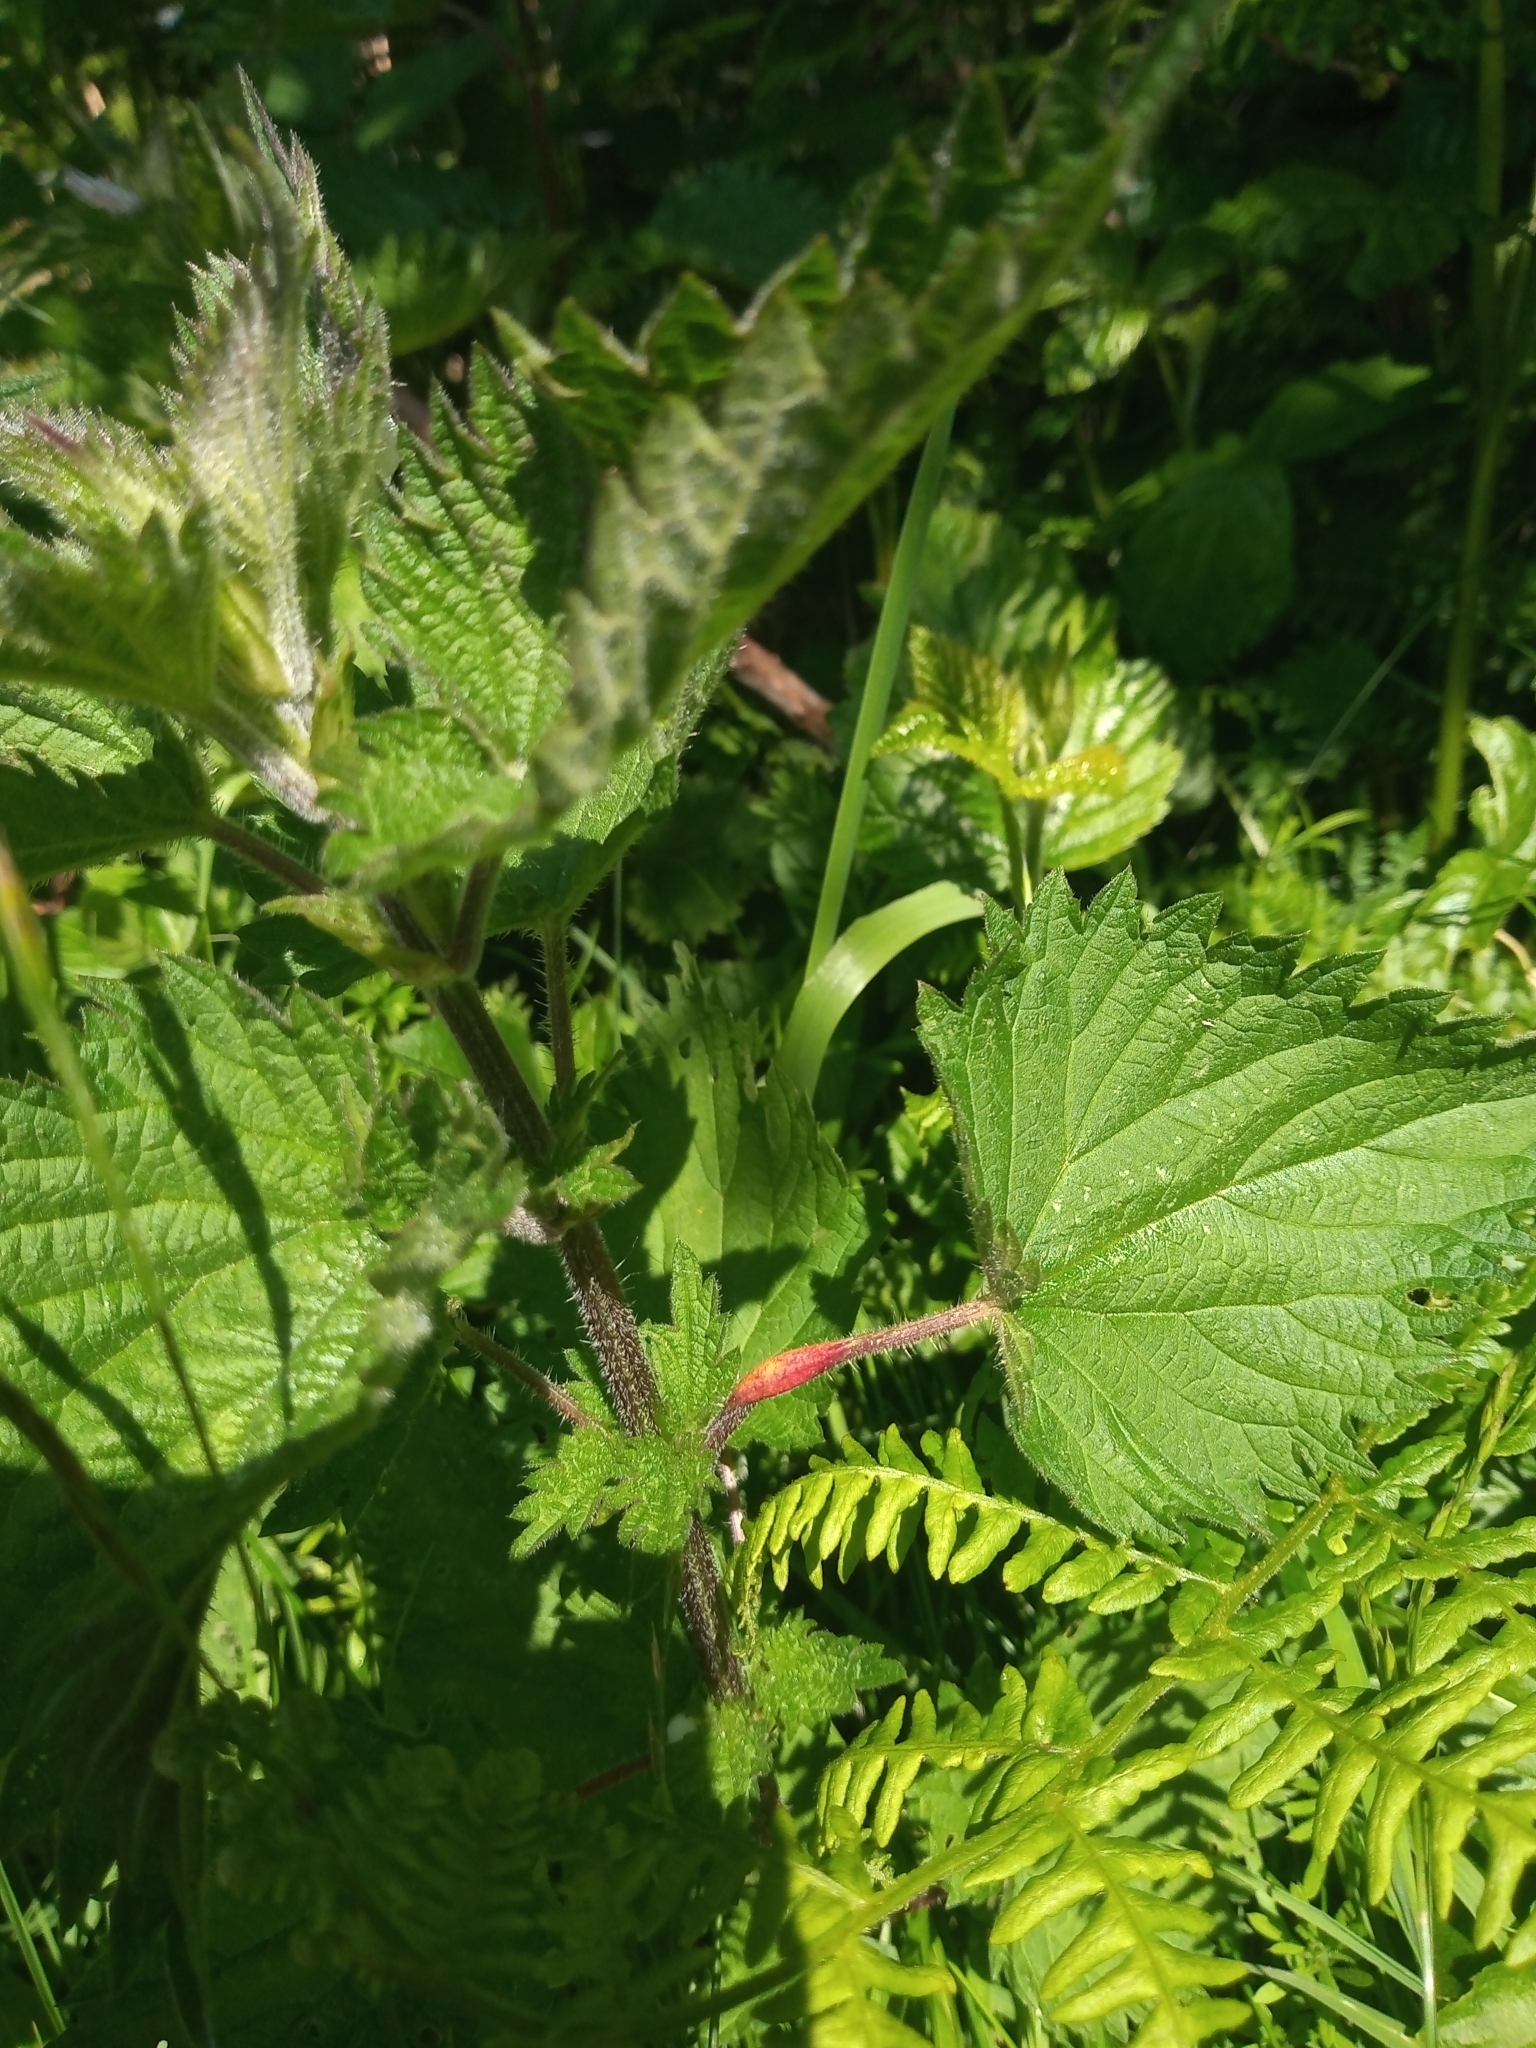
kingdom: Fungi
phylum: Basidiomycota
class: Pucciniomycetes
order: Pucciniales
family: Pucciniaceae
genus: Puccinia
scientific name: Puccinia urticata
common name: Nettle clustercup rust fungus
